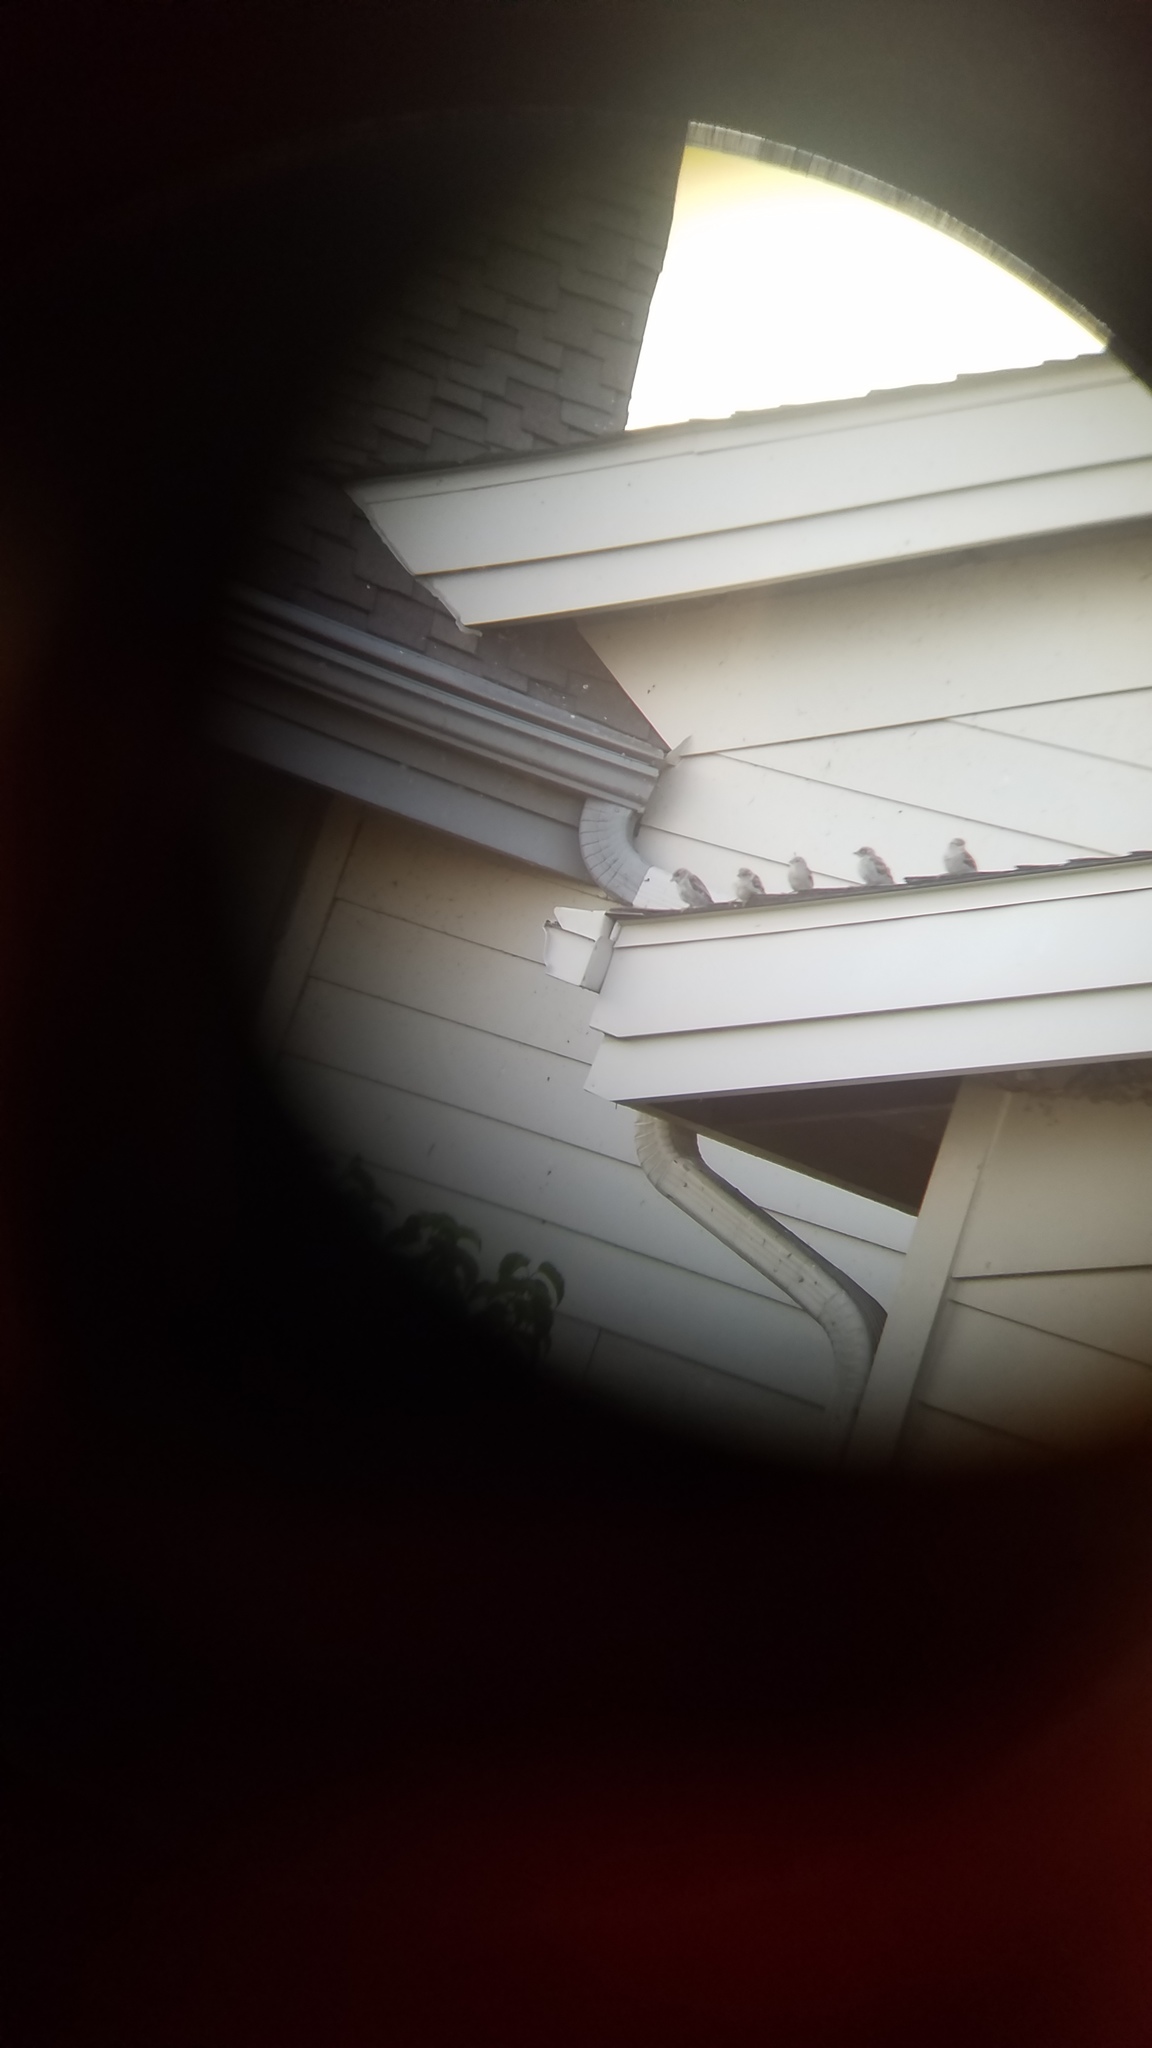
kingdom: Animalia
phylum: Chordata
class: Aves
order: Passeriformes
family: Passeridae
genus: Passer
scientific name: Passer domesticus
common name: House sparrow
